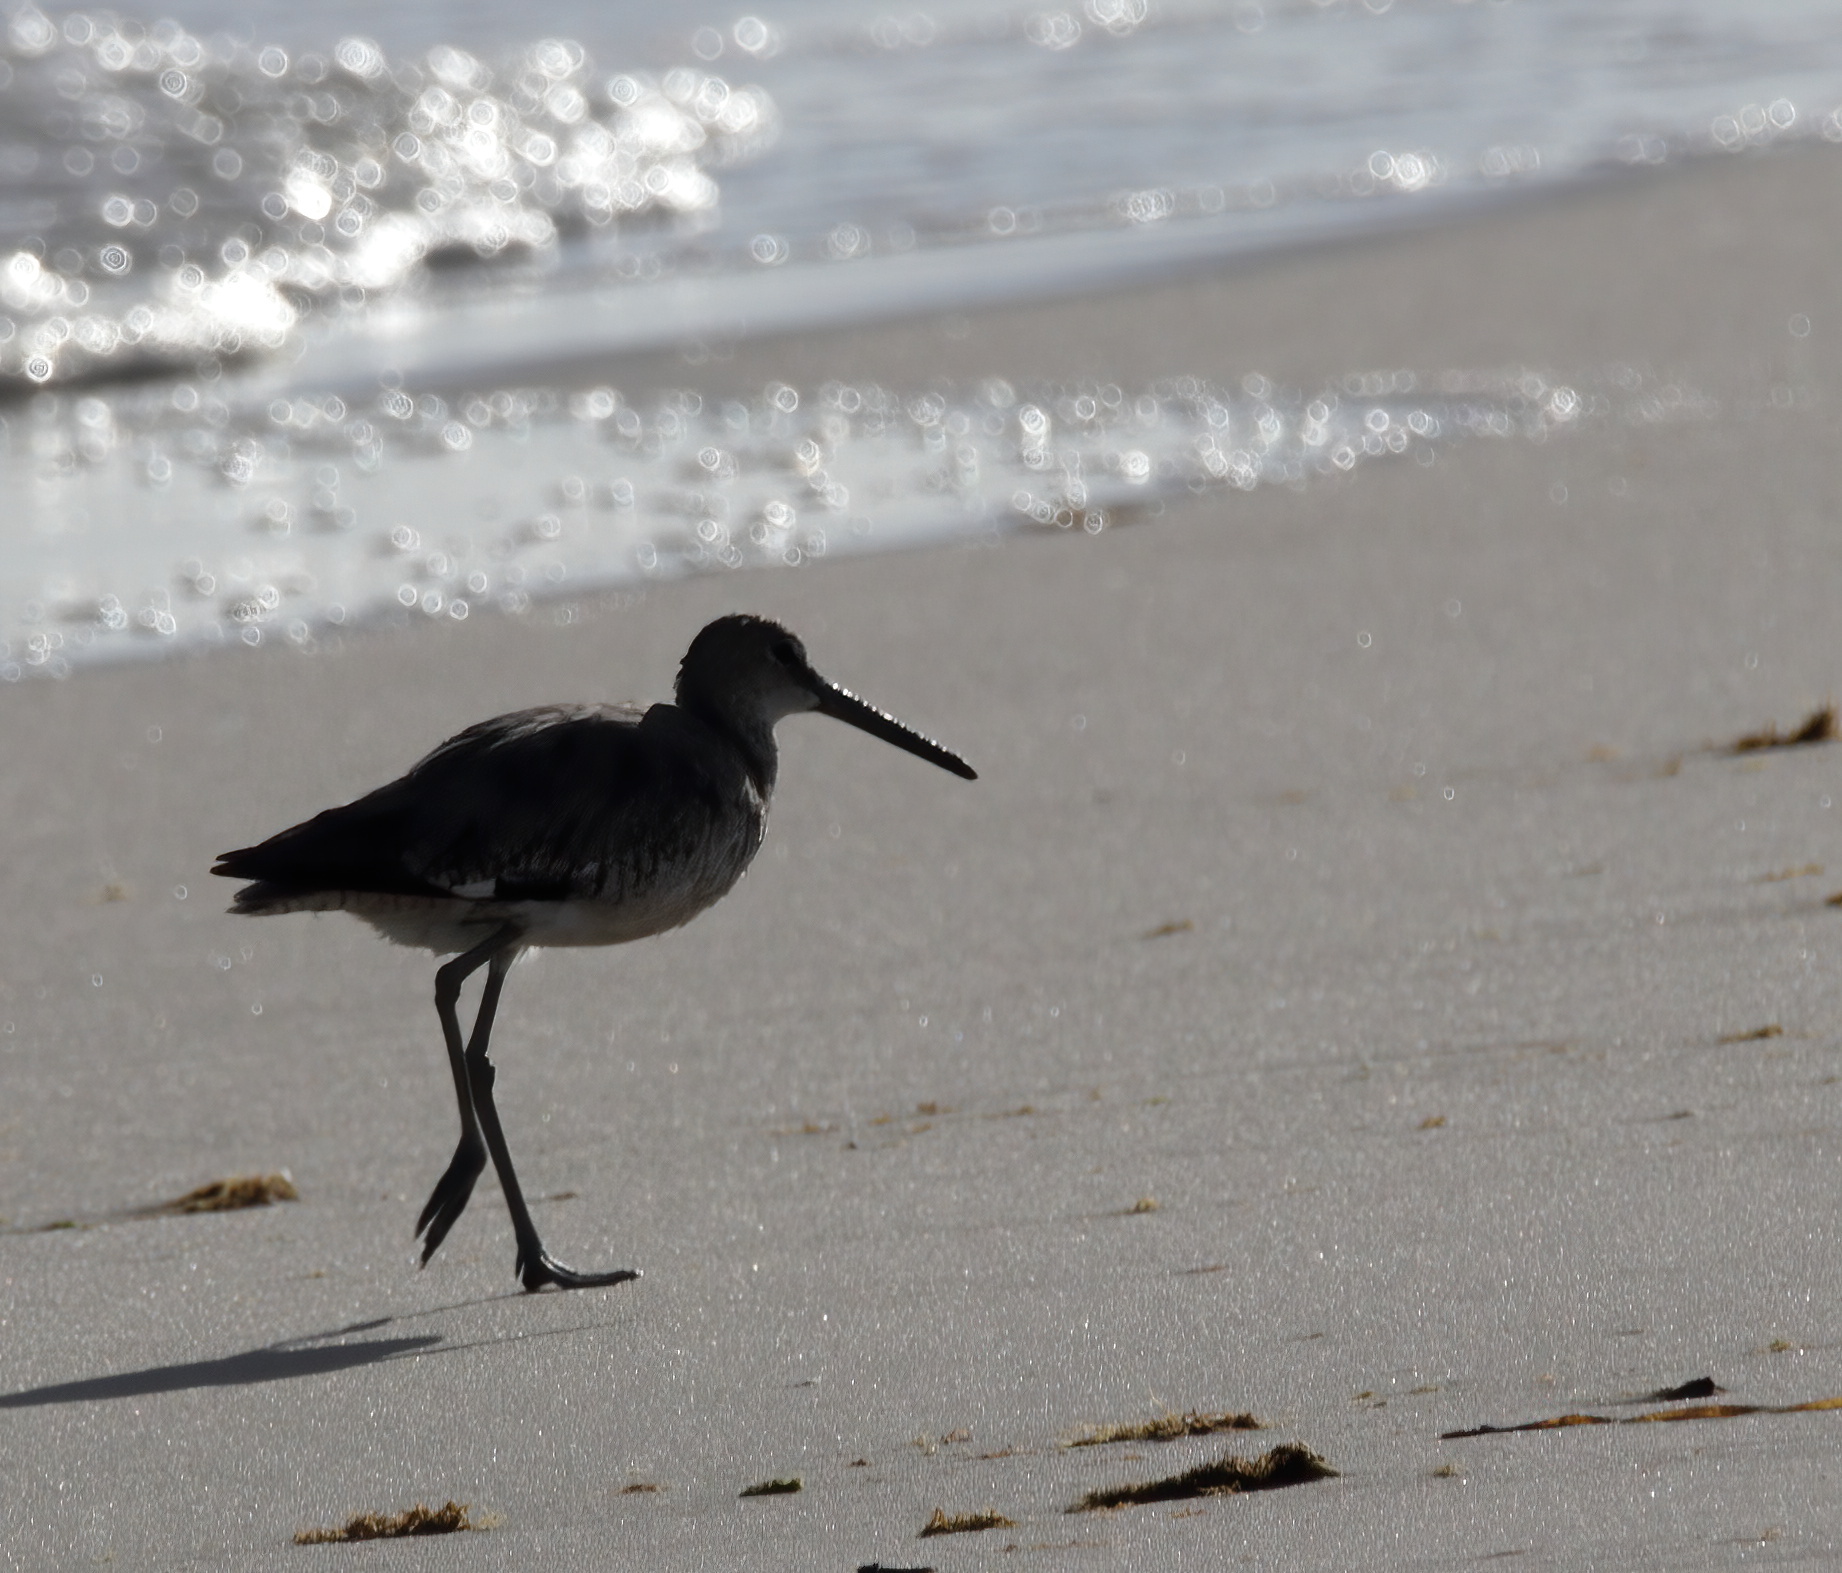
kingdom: Animalia
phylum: Chordata
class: Aves
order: Charadriiformes
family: Scolopacidae
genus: Tringa
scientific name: Tringa semipalmata
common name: Willet
